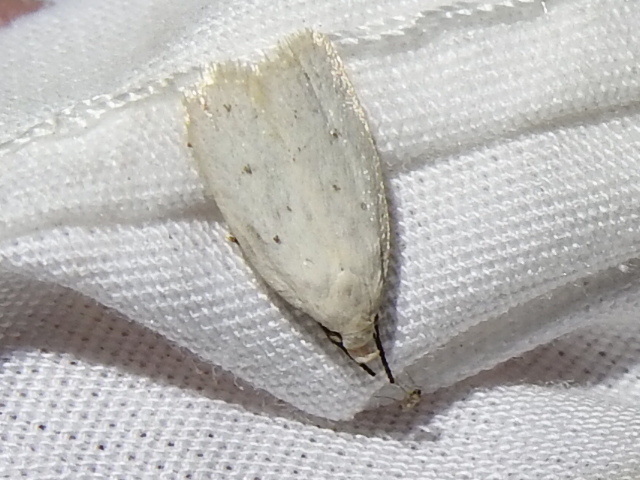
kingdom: Animalia
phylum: Arthropoda
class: Insecta
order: Lepidoptera
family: Oecophoridae
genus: Inga
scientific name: Inga cretacea
